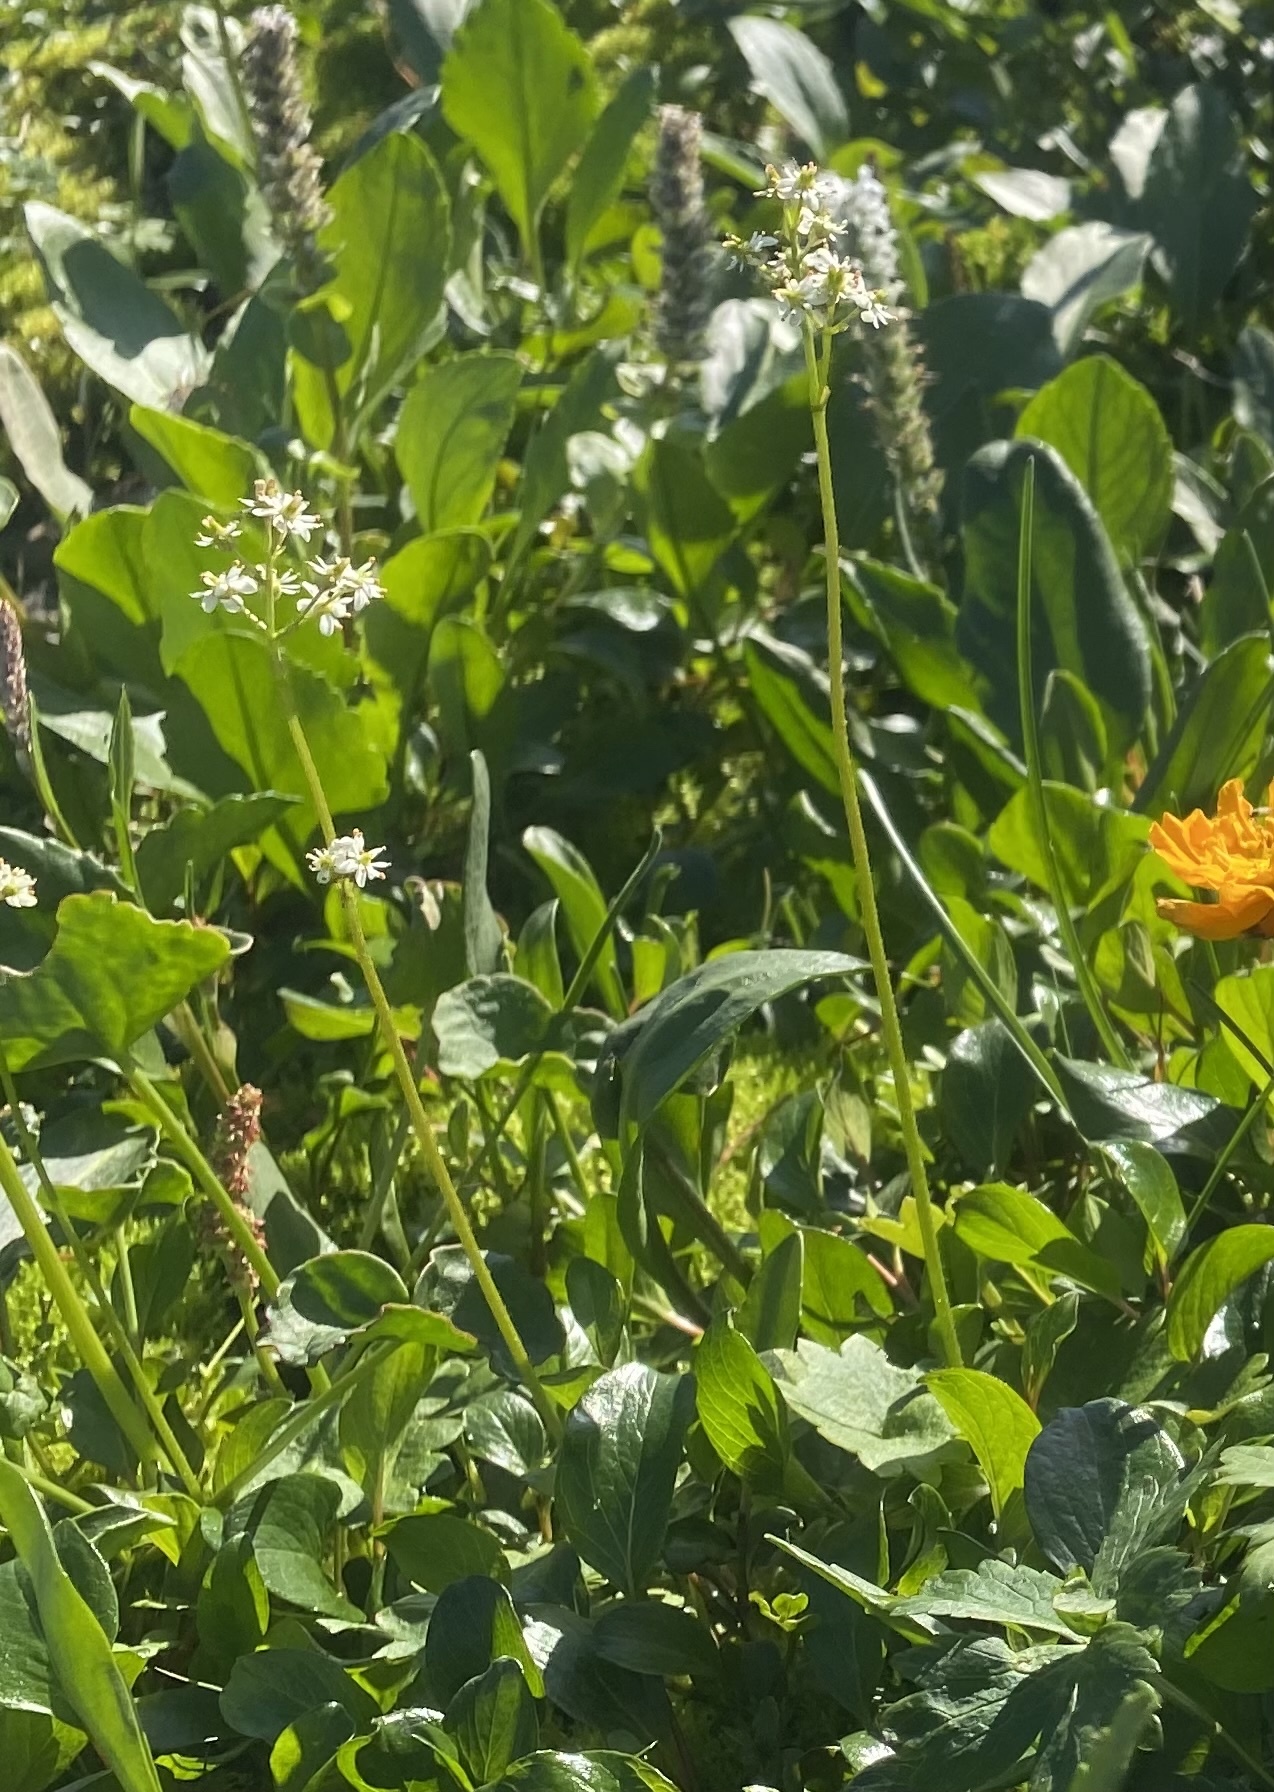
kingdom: Plantae
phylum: Tracheophyta
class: Magnoliopsida
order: Saxifragales
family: Saxifragaceae
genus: Micranthes
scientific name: Micranthes nelsoniana
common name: Nelson's saxifrage
